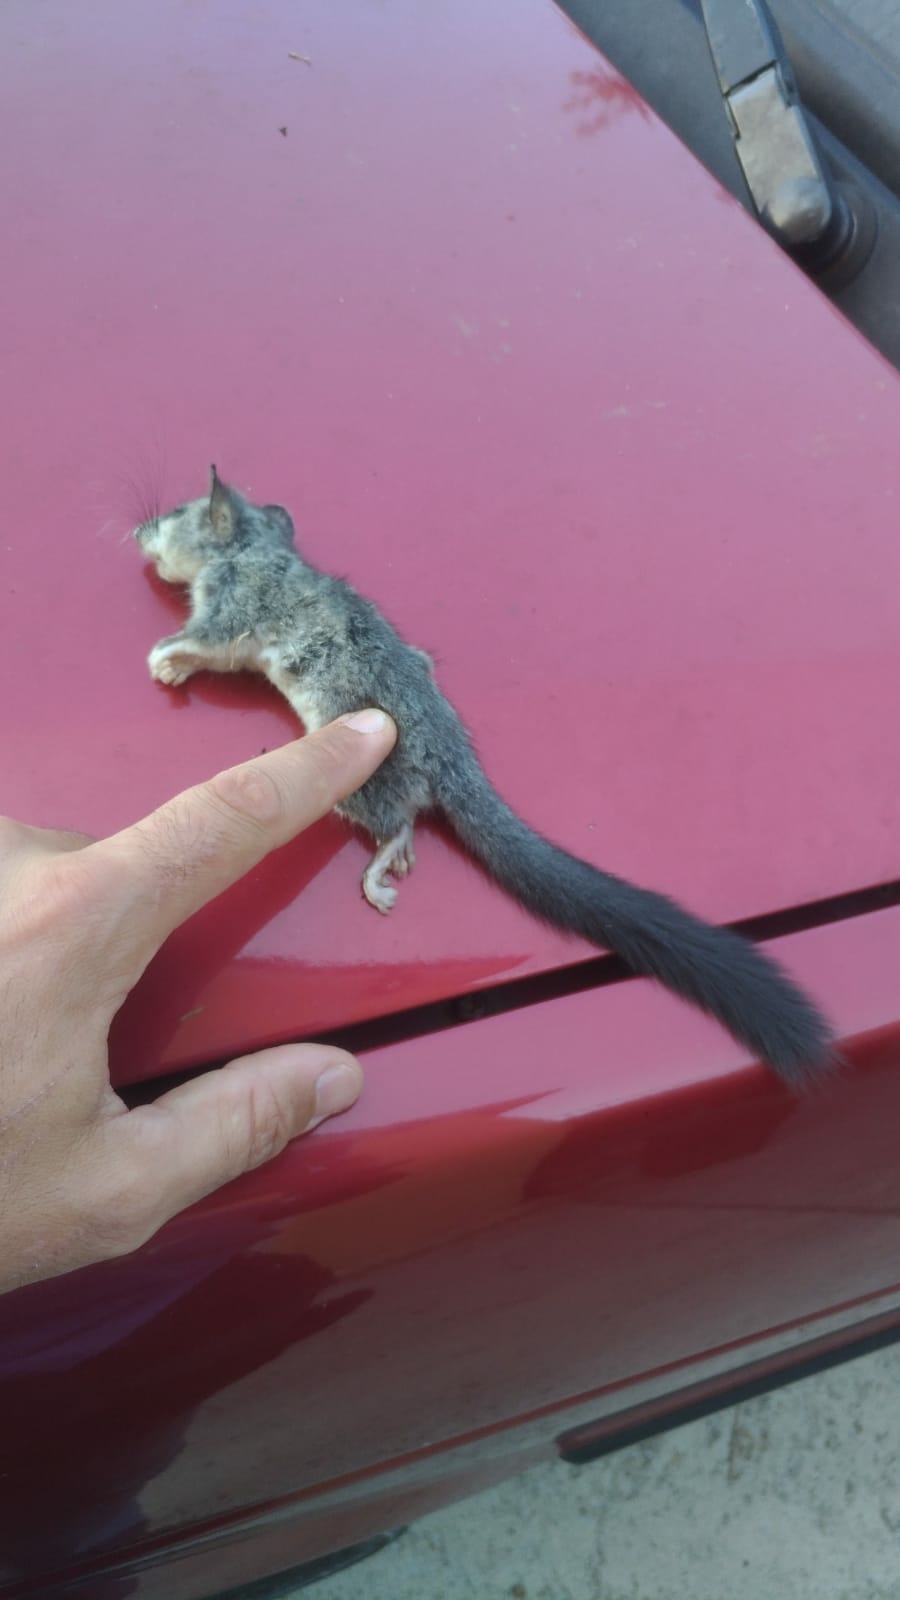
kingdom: Animalia
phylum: Chordata
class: Mammalia
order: Rodentia
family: Gliridae
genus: Glis
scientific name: Glis glis
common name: Fat dormouse
